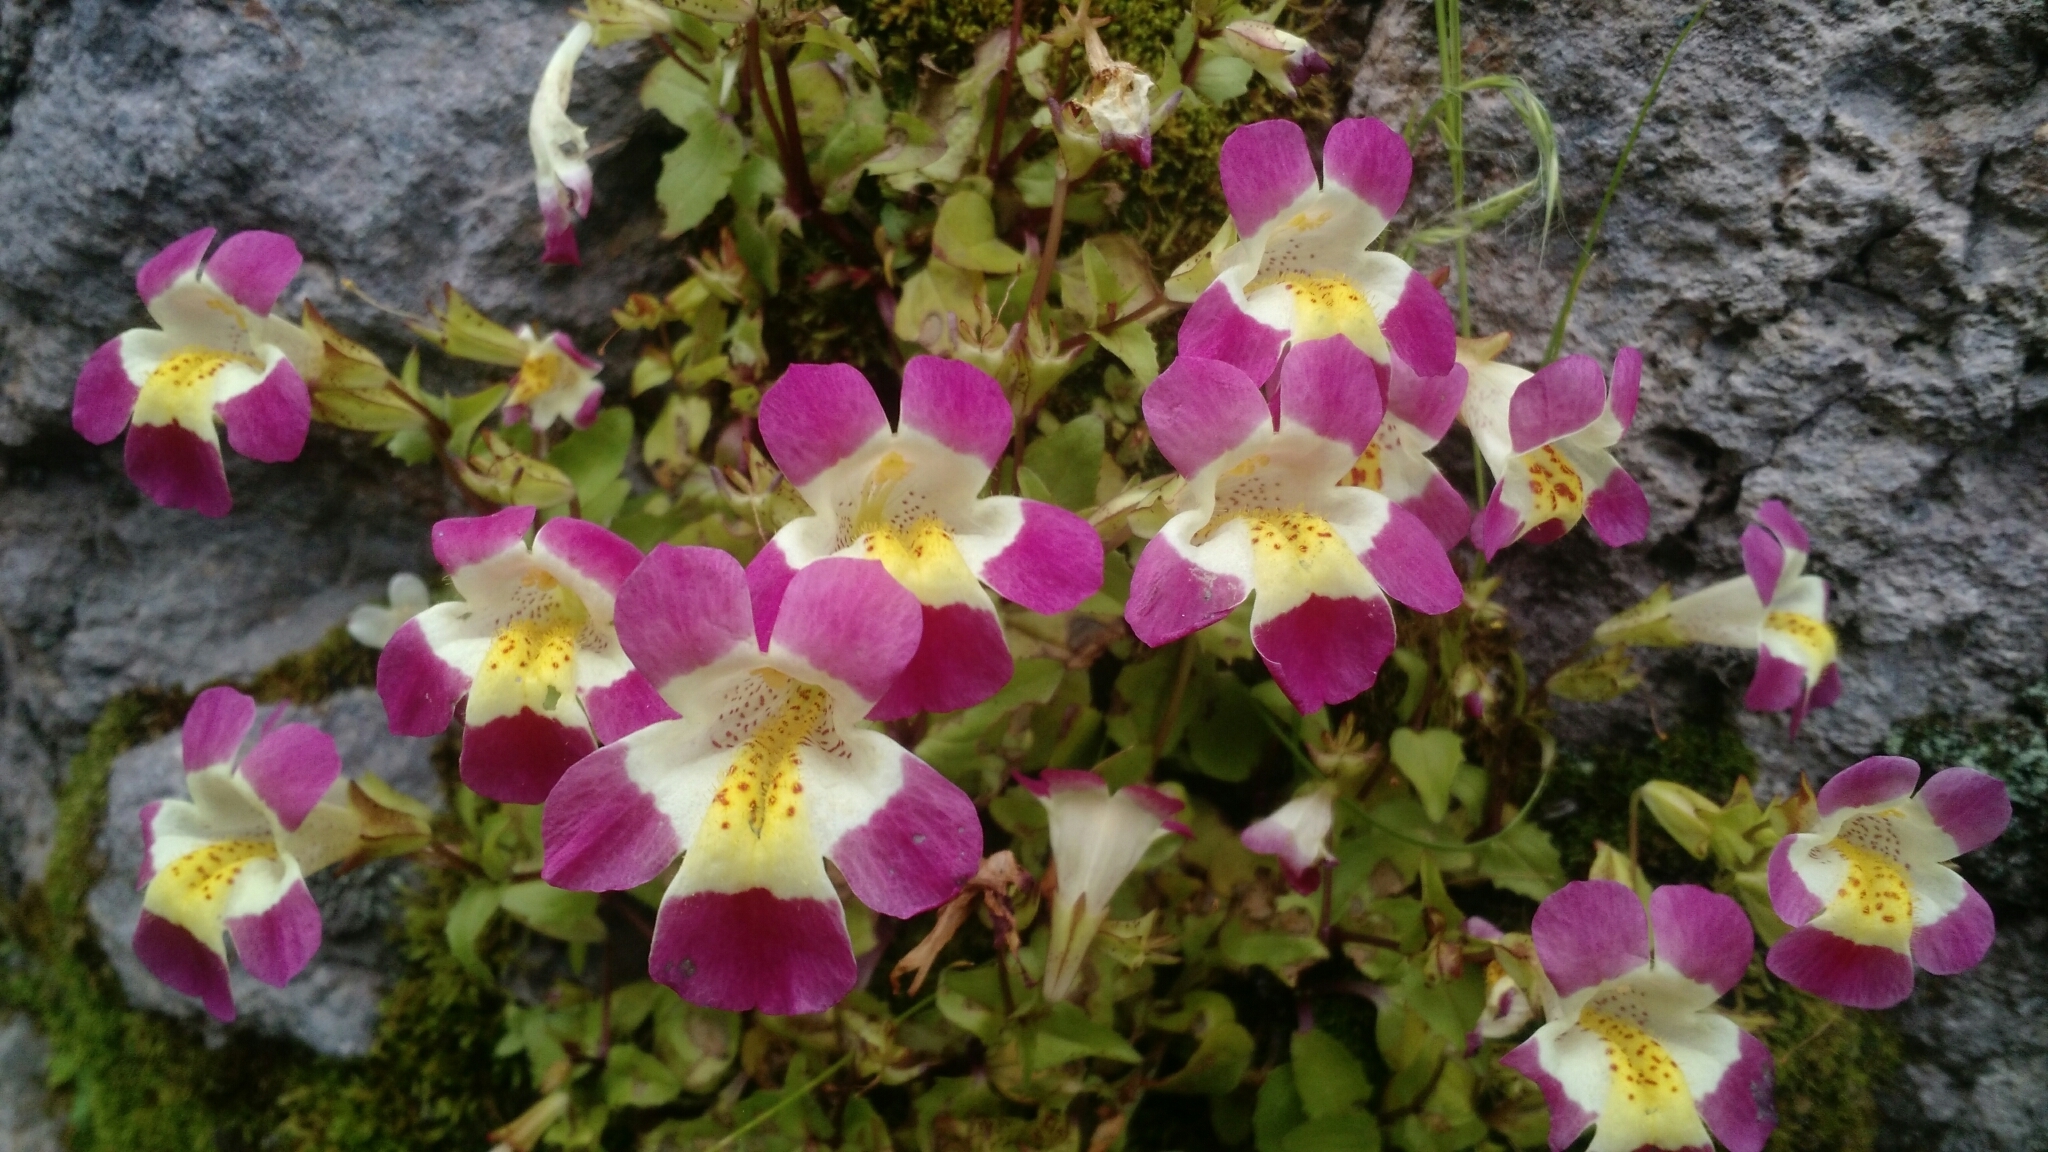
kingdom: Plantae
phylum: Tracheophyta
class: Magnoliopsida
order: Lamiales
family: Phrymaceae
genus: Erythranthe
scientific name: Erythranthe lutea
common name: Yellow monkey-flower
